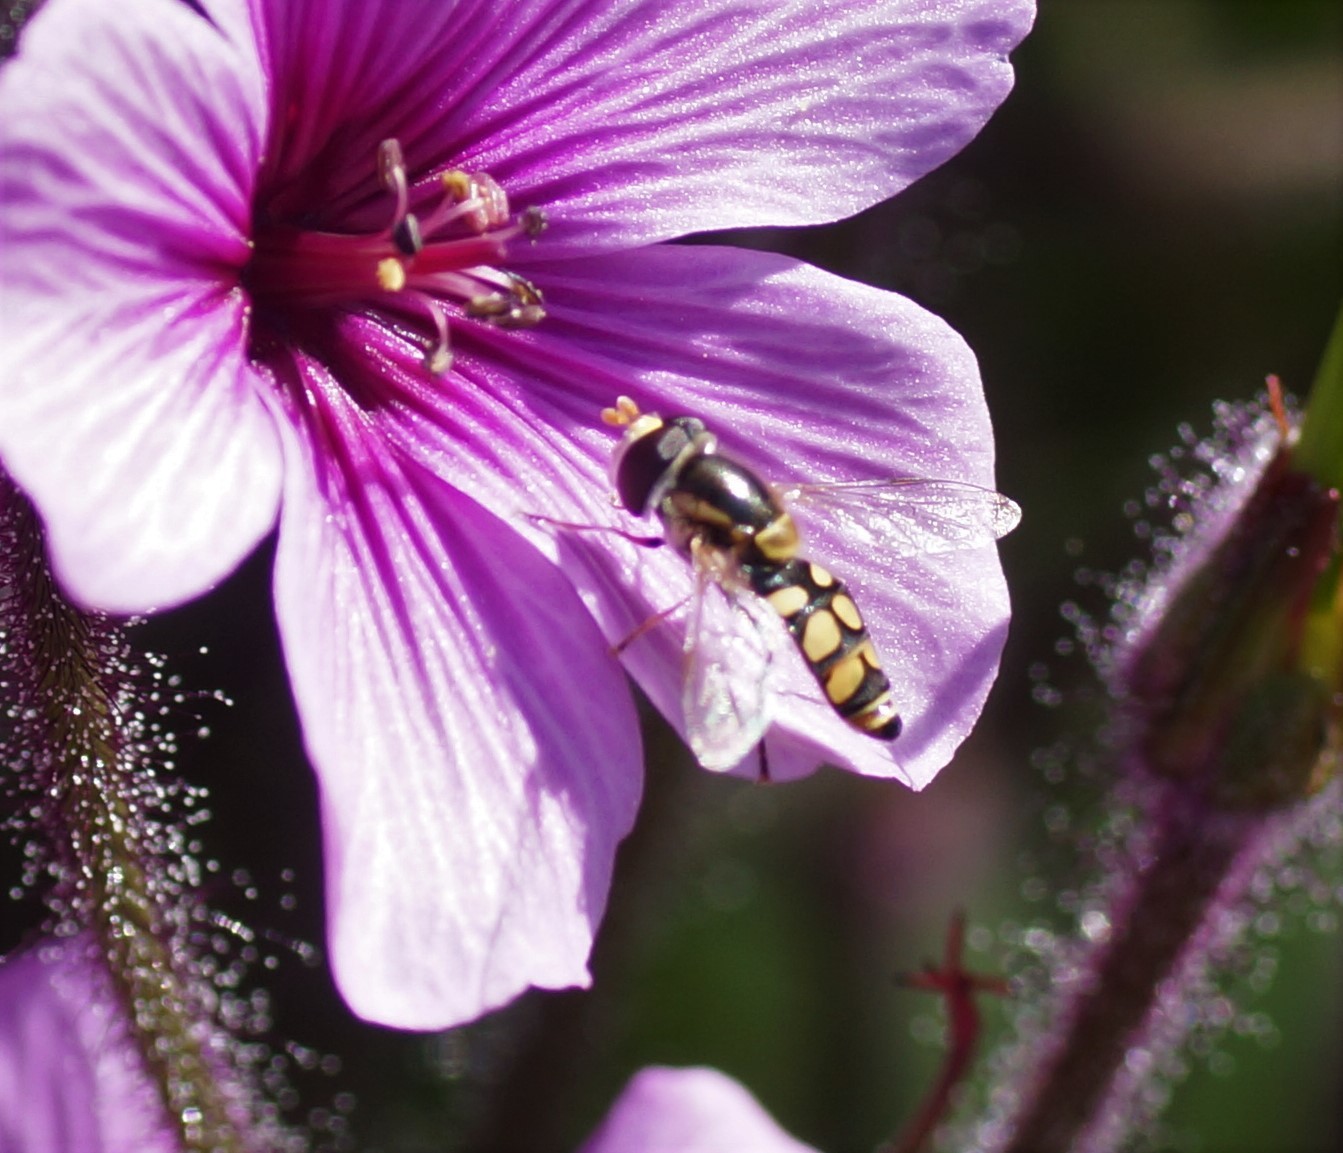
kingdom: Animalia
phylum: Arthropoda
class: Insecta
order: Diptera
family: Syrphidae
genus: Simosyrphus
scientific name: Simosyrphus grandicornis
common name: Hoverfly
